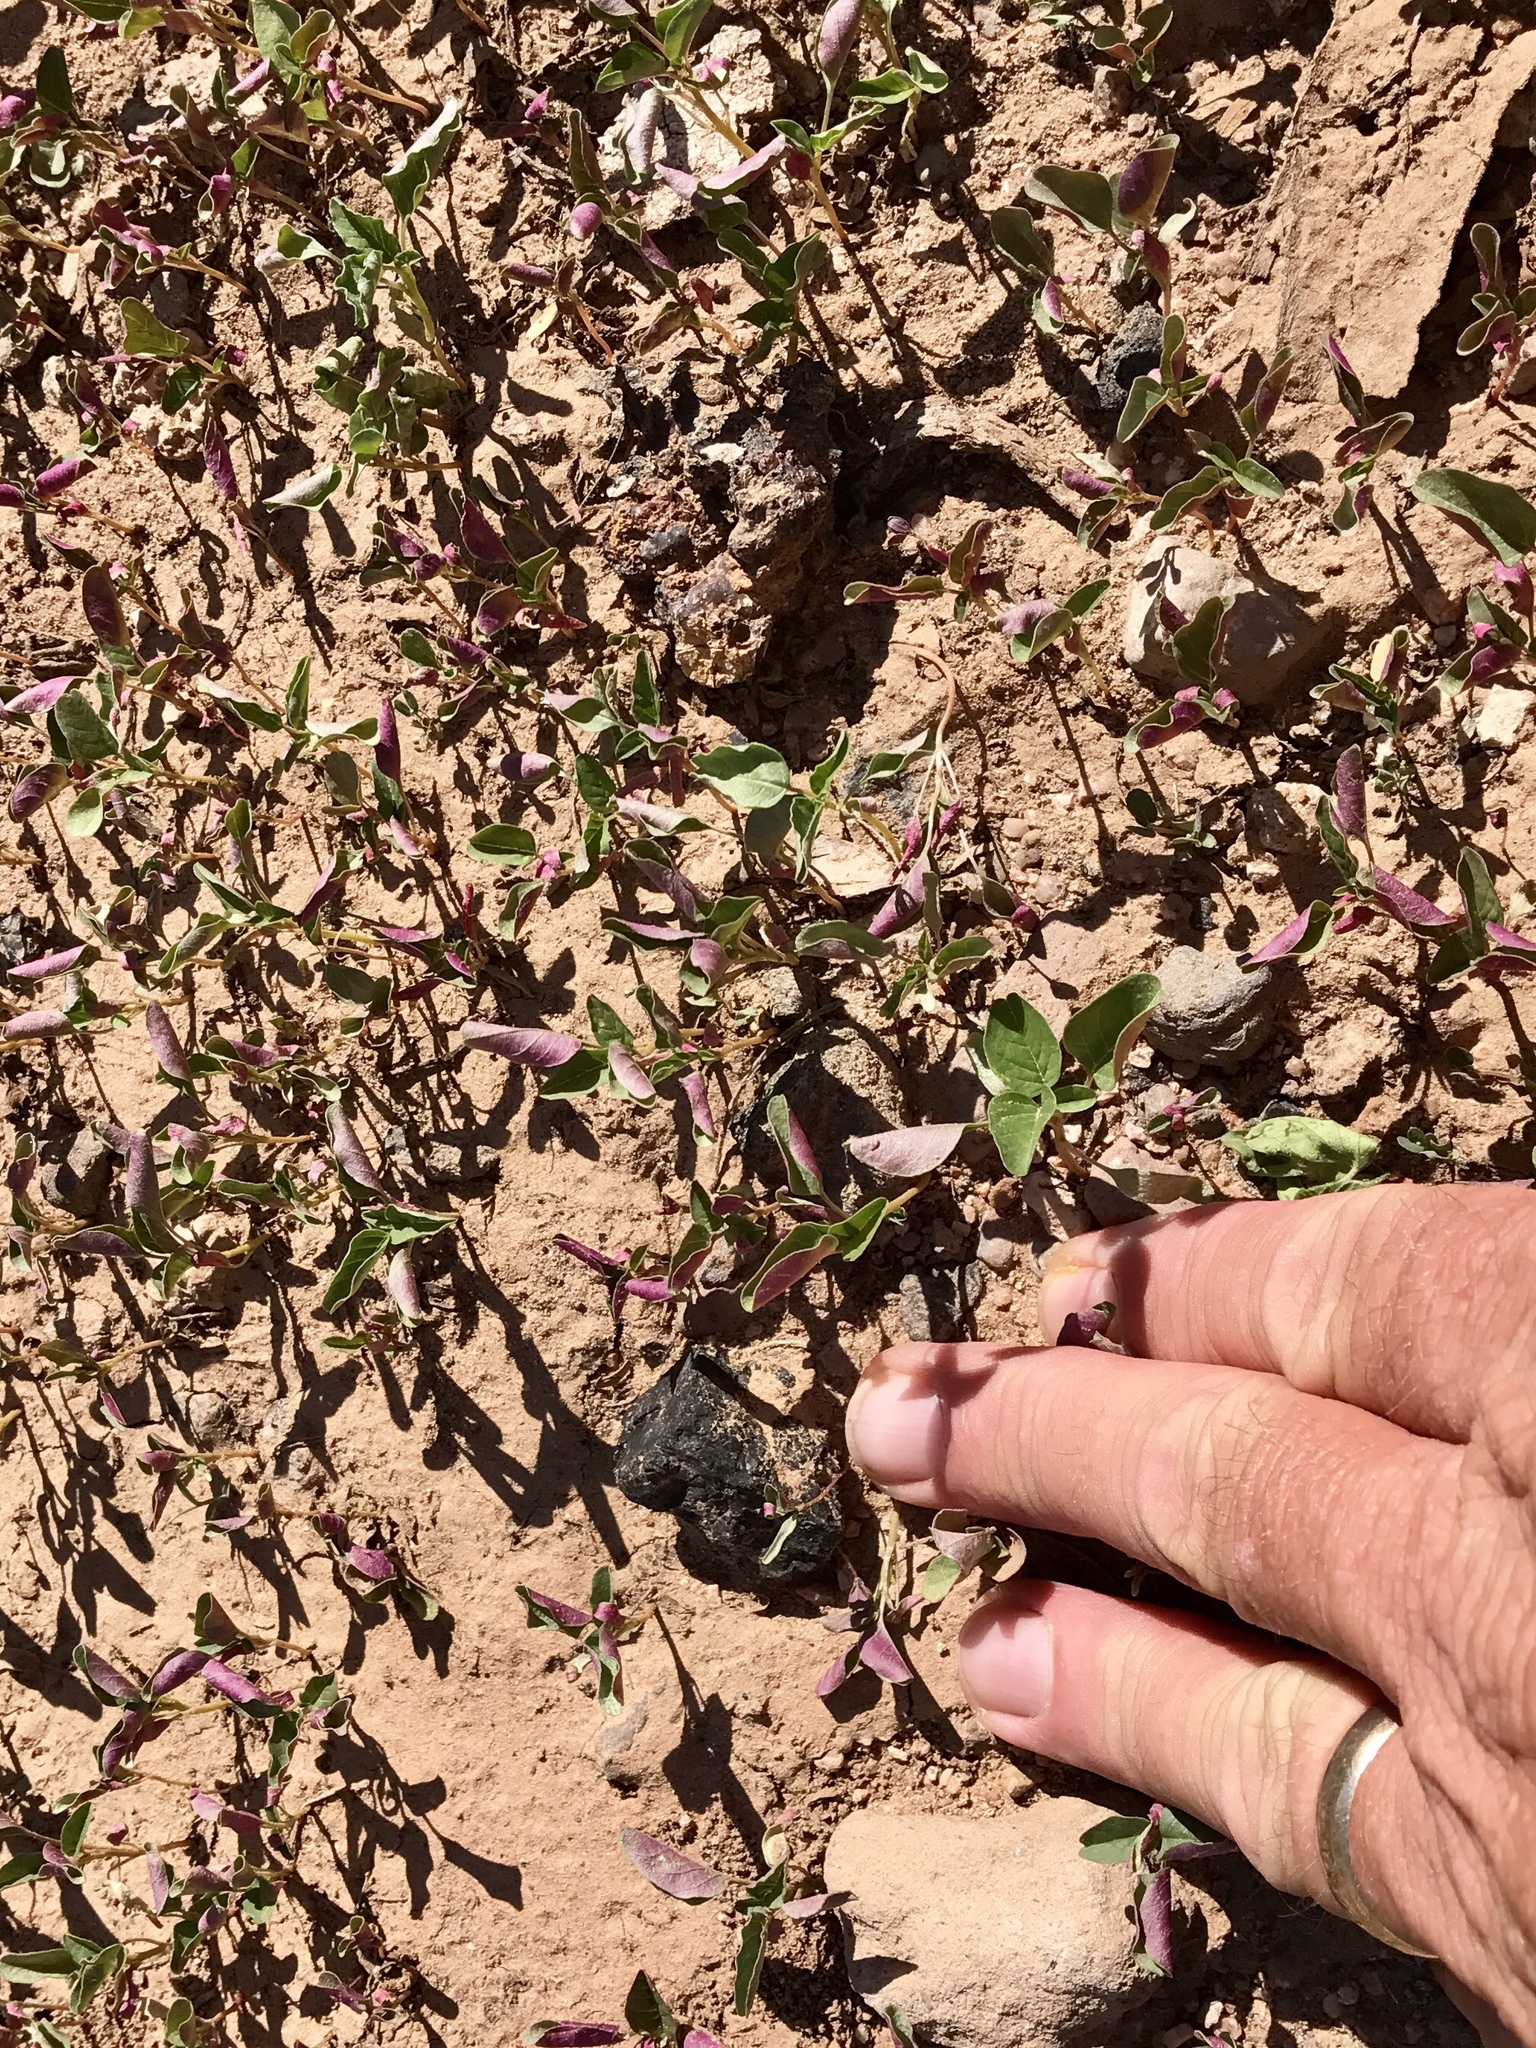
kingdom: Plantae
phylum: Tracheophyta
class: Magnoliopsida
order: Caryophyllales
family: Amaranthaceae
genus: Atriplex
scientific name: Atriplex prostrata
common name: Spear-leaved orache
